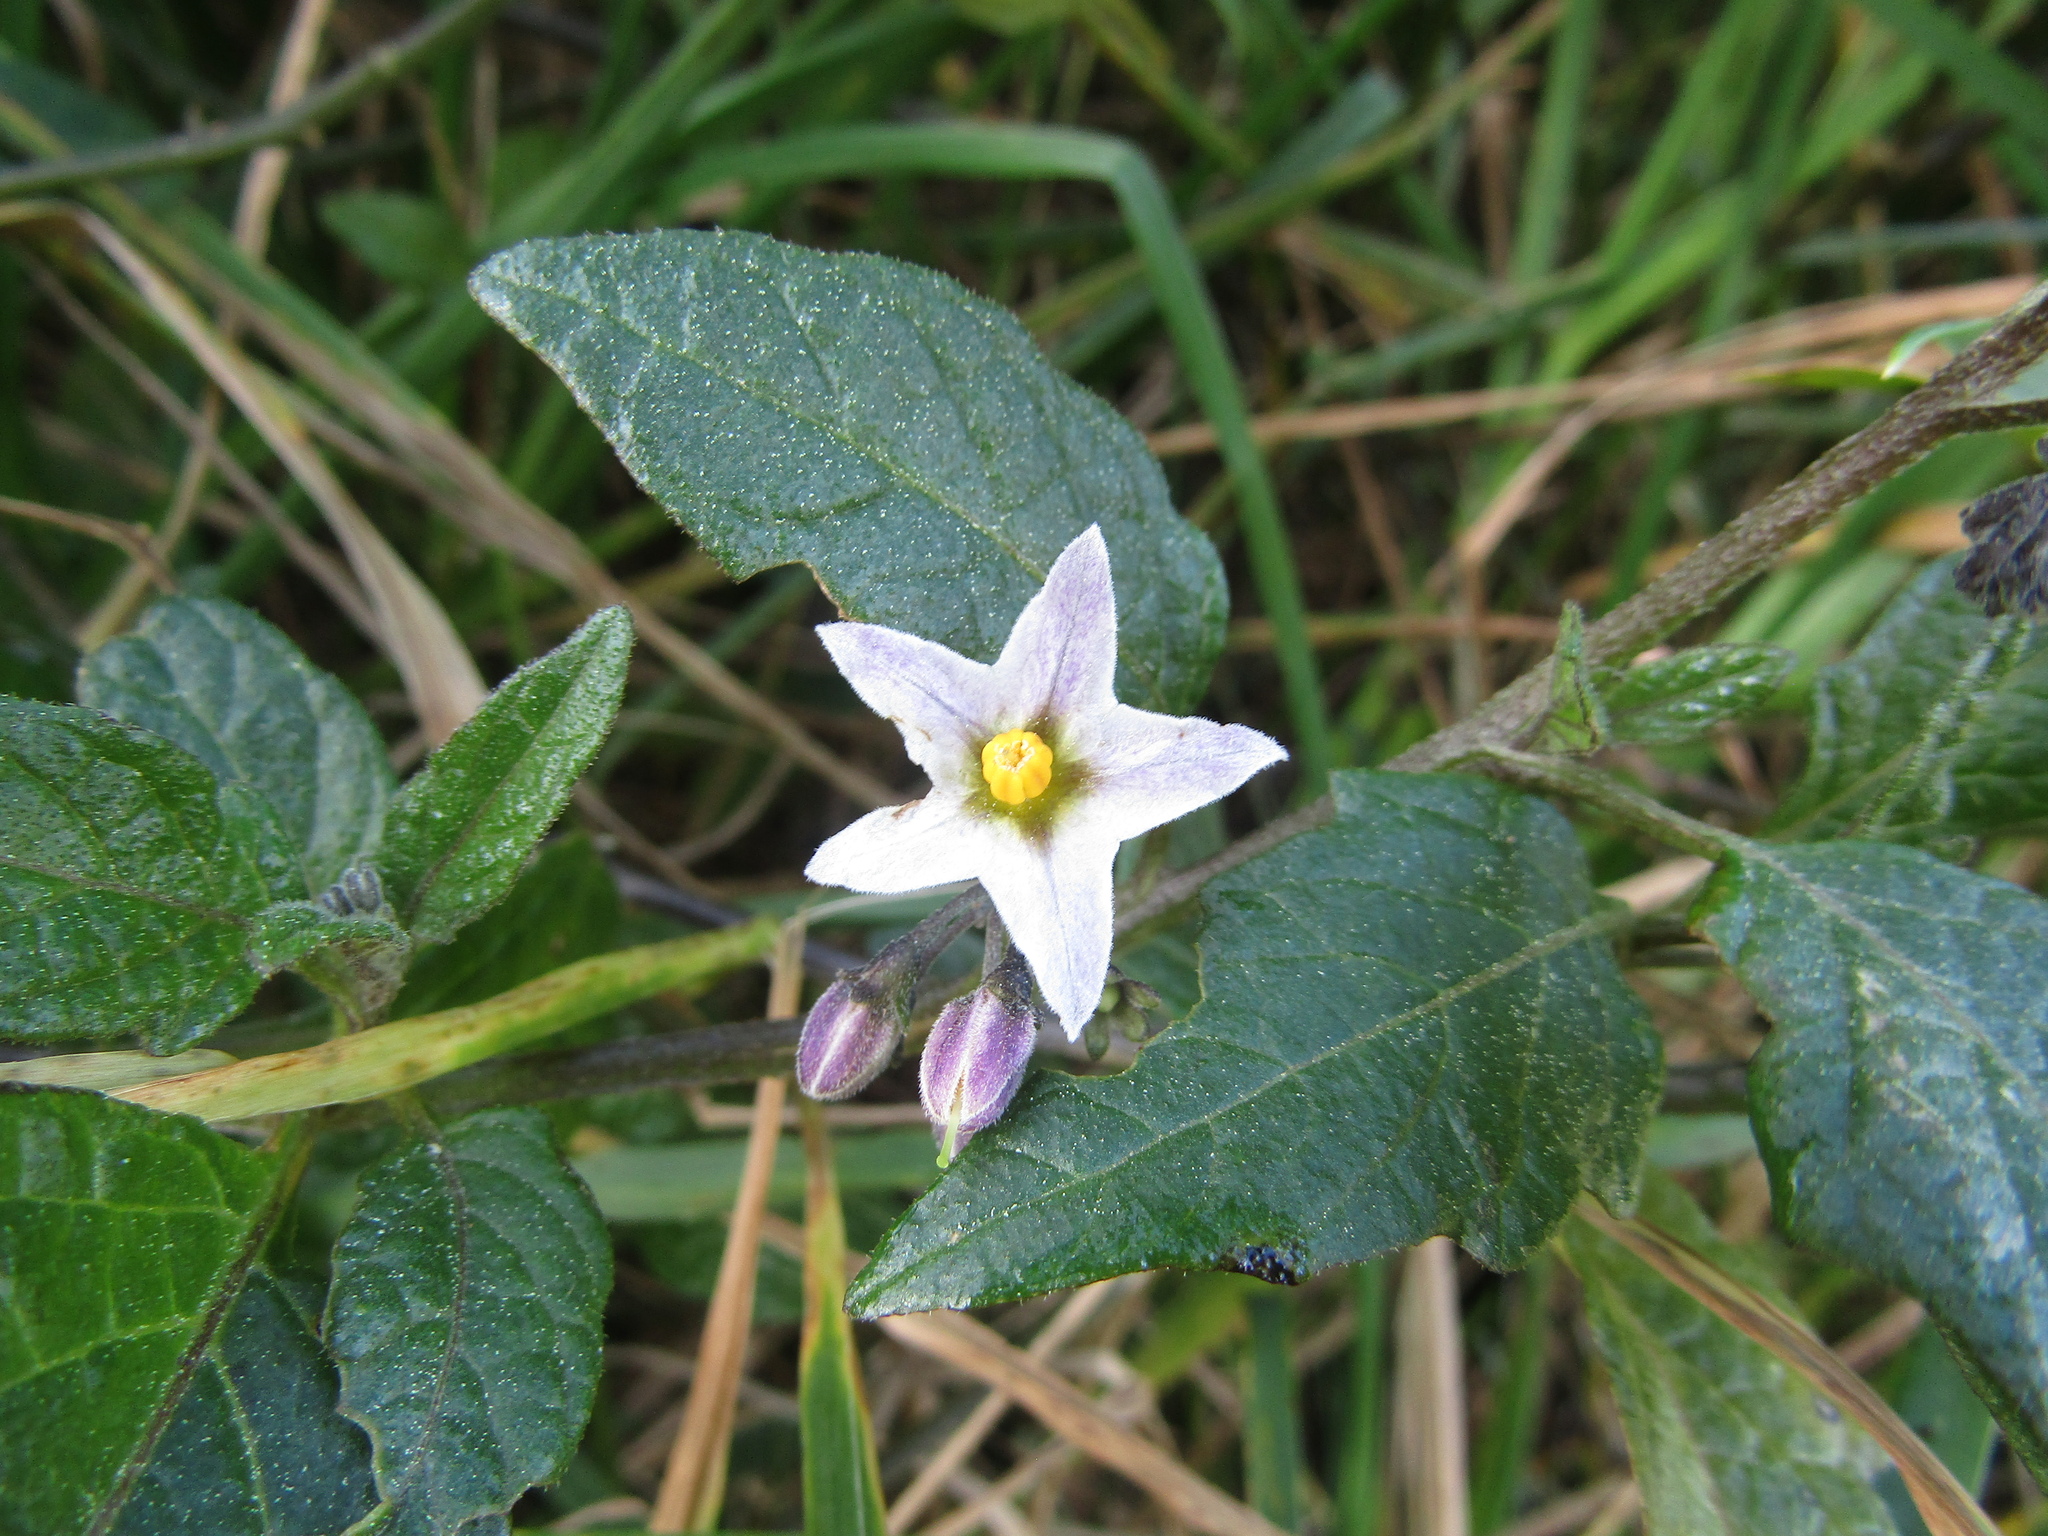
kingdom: Plantae
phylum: Tracheophyta
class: Magnoliopsida
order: Solanales
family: Solanaceae
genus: Solanum
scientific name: Solanum furcatum
